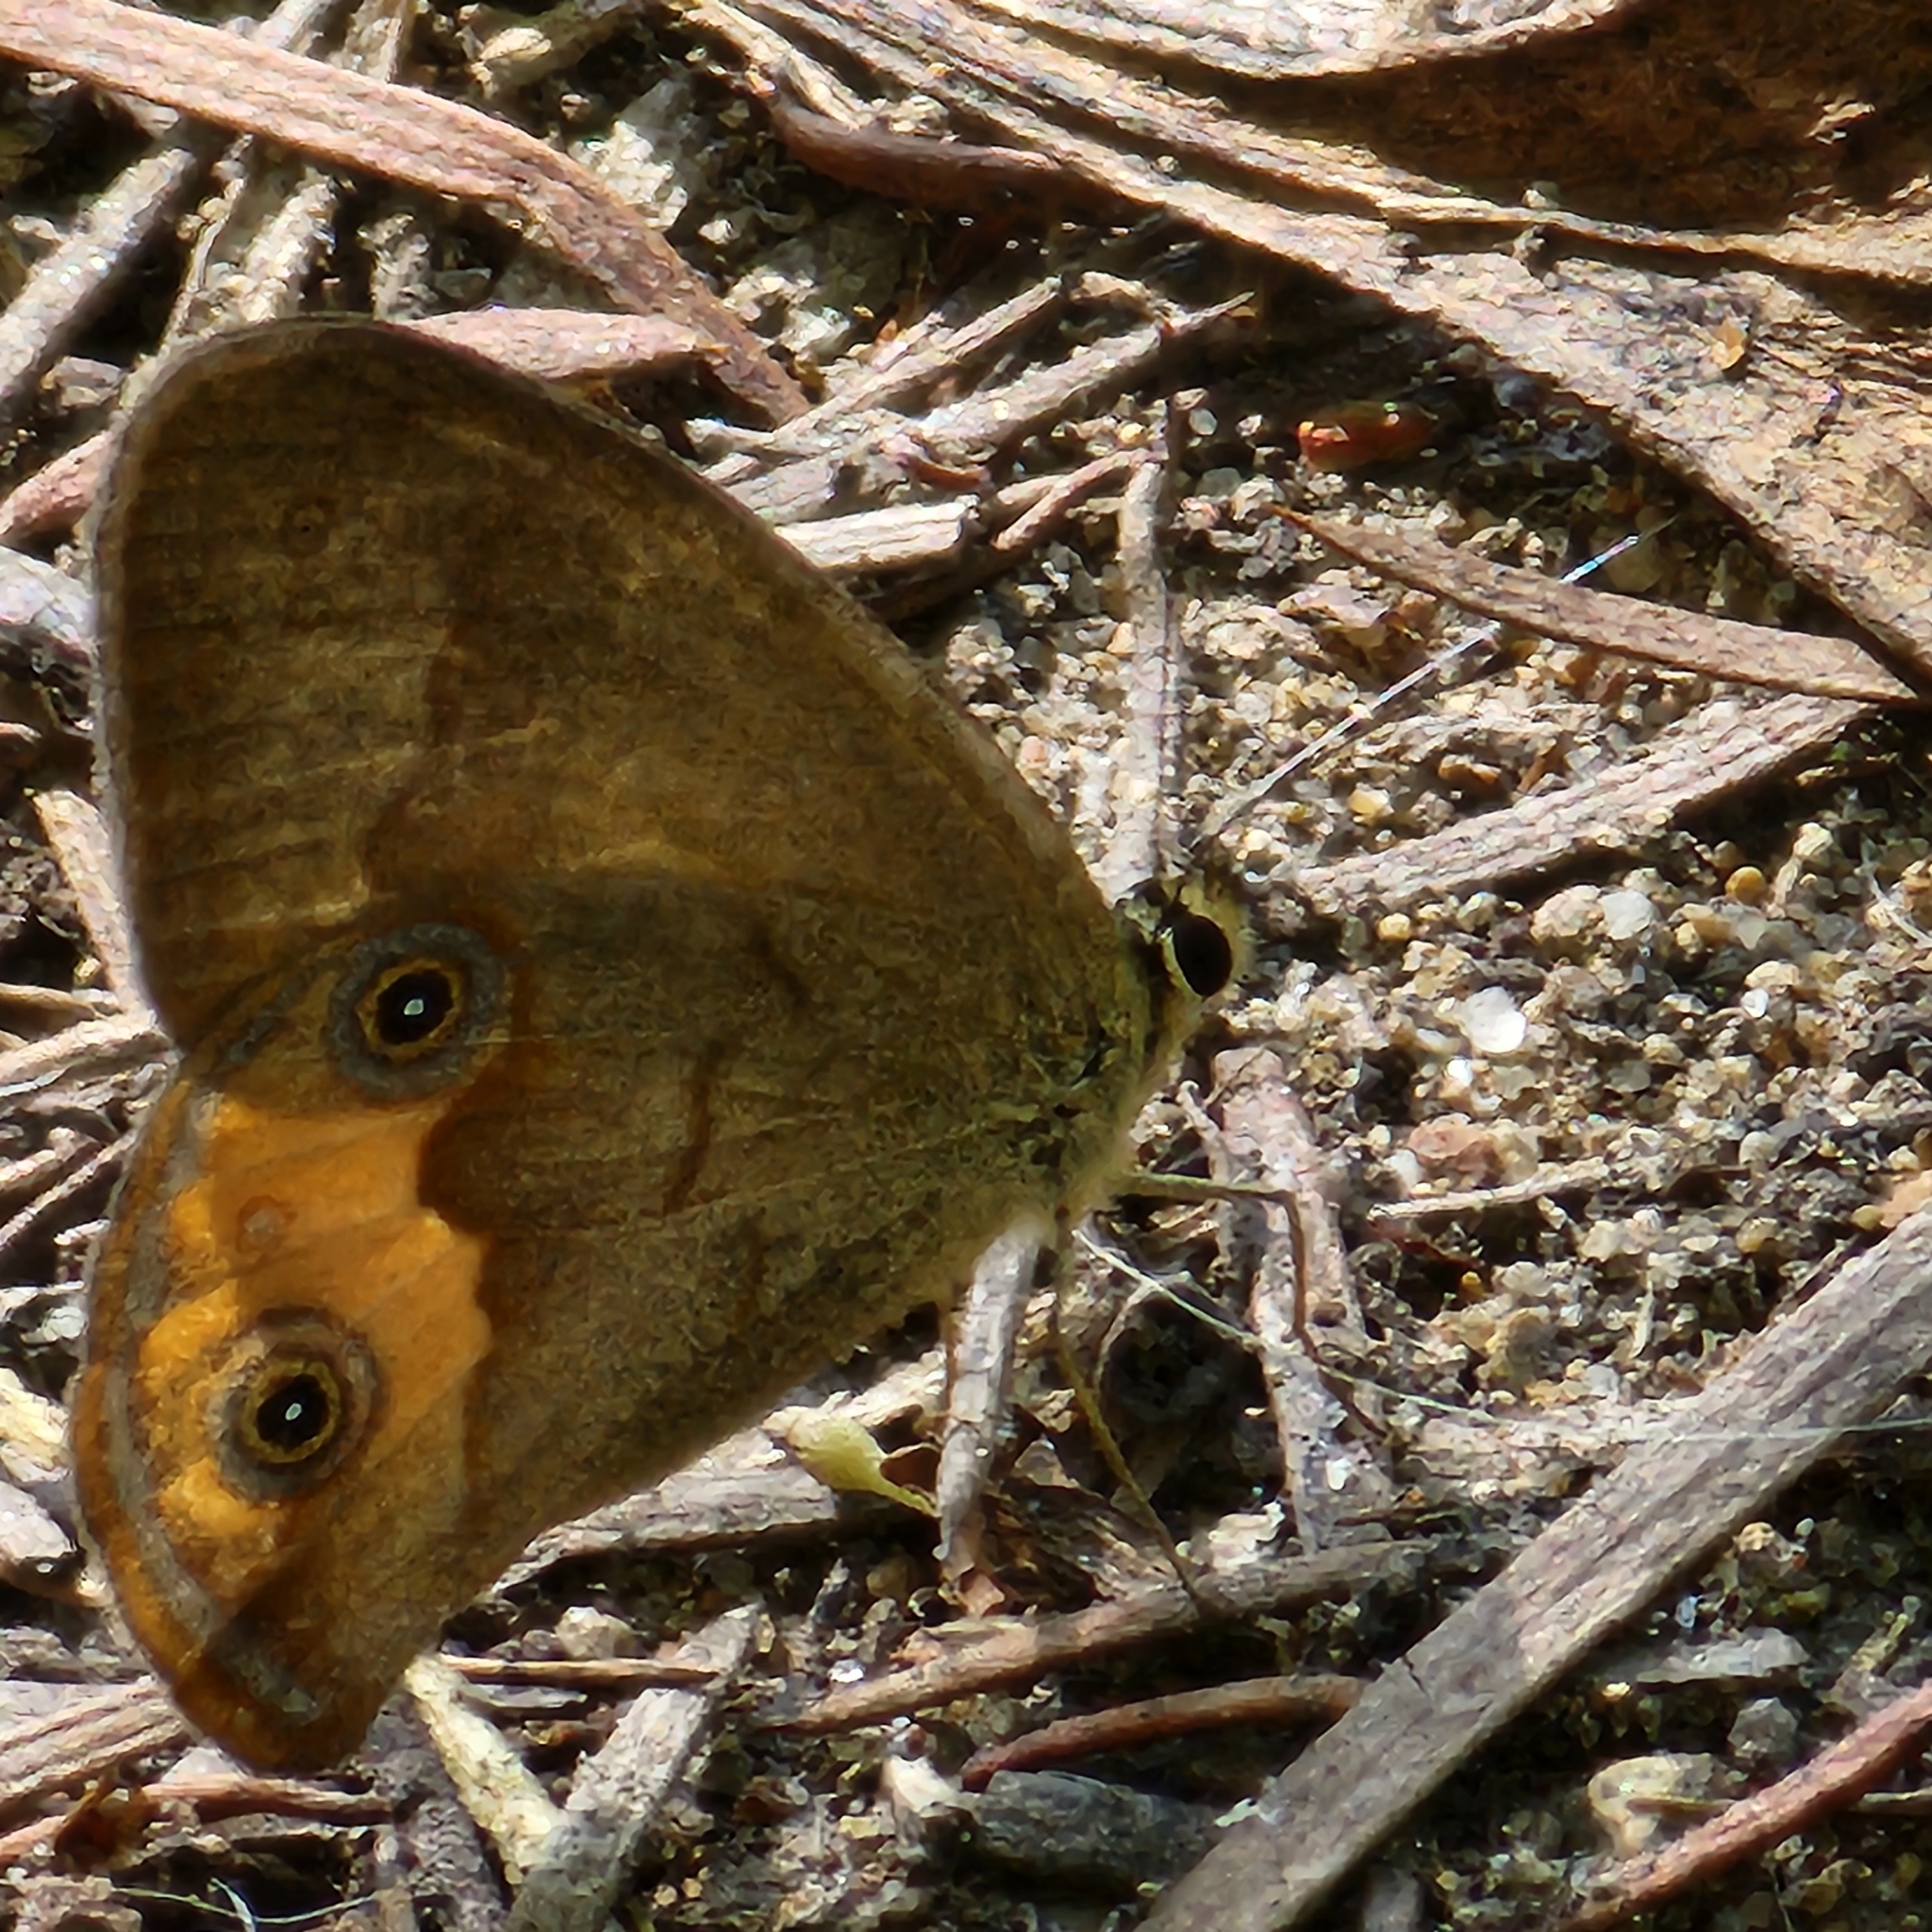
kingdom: Animalia
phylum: Arthropoda
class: Insecta
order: Lepidoptera
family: Nymphalidae
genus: Hypocysta
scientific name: Hypocysta metirius
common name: Brown ringlet
